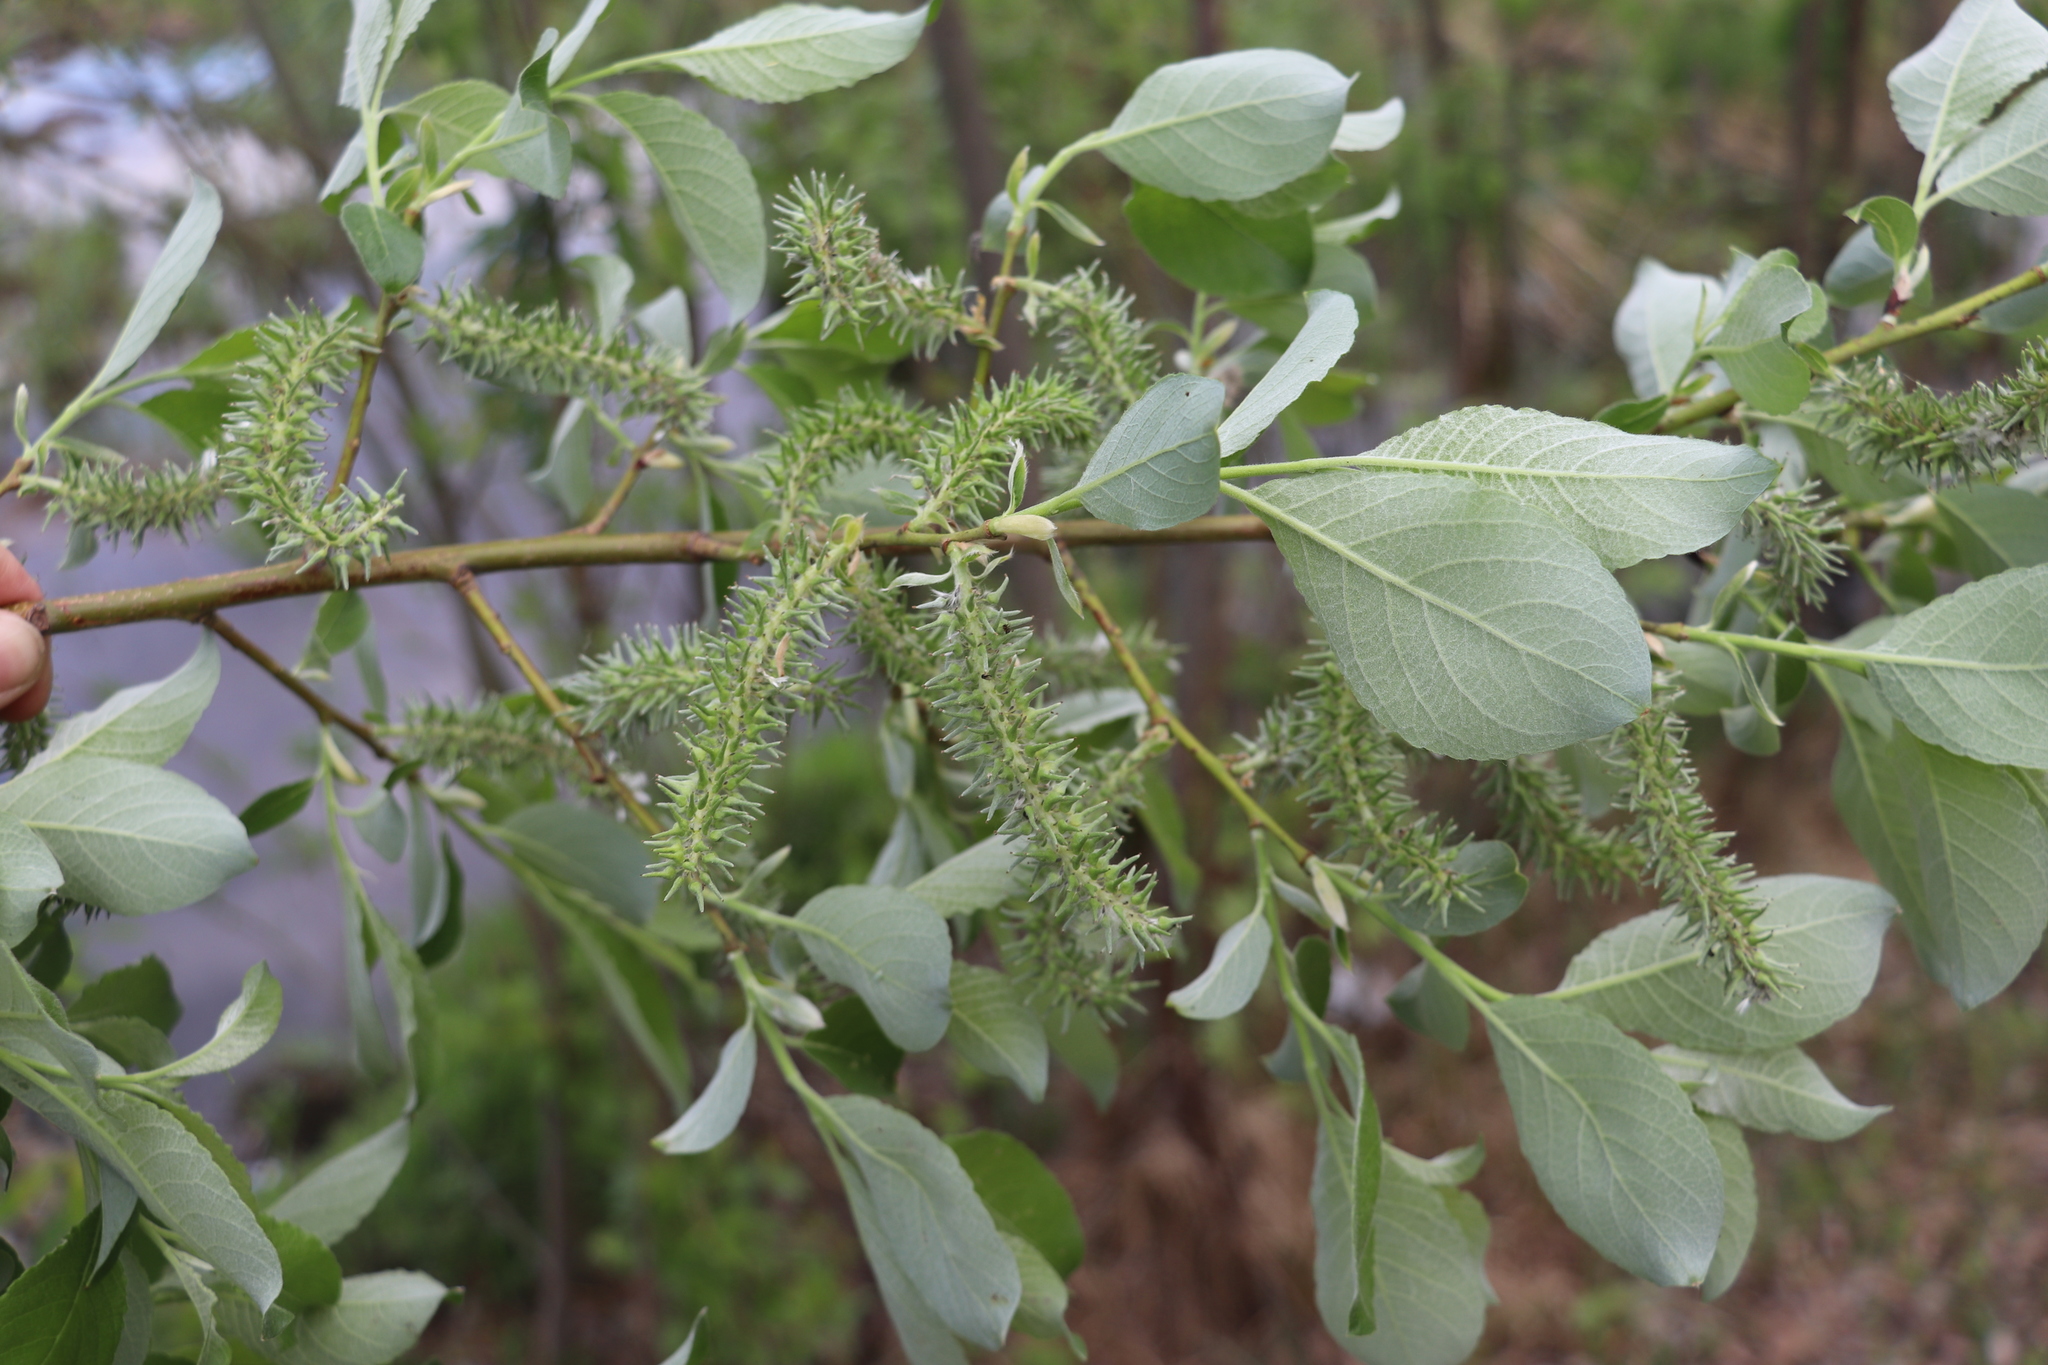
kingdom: Plantae
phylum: Tracheophyta
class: Magnoliopsida
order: Malpighiales
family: Salicaceae
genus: Salix
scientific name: Salix caprea
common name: Goat willow
